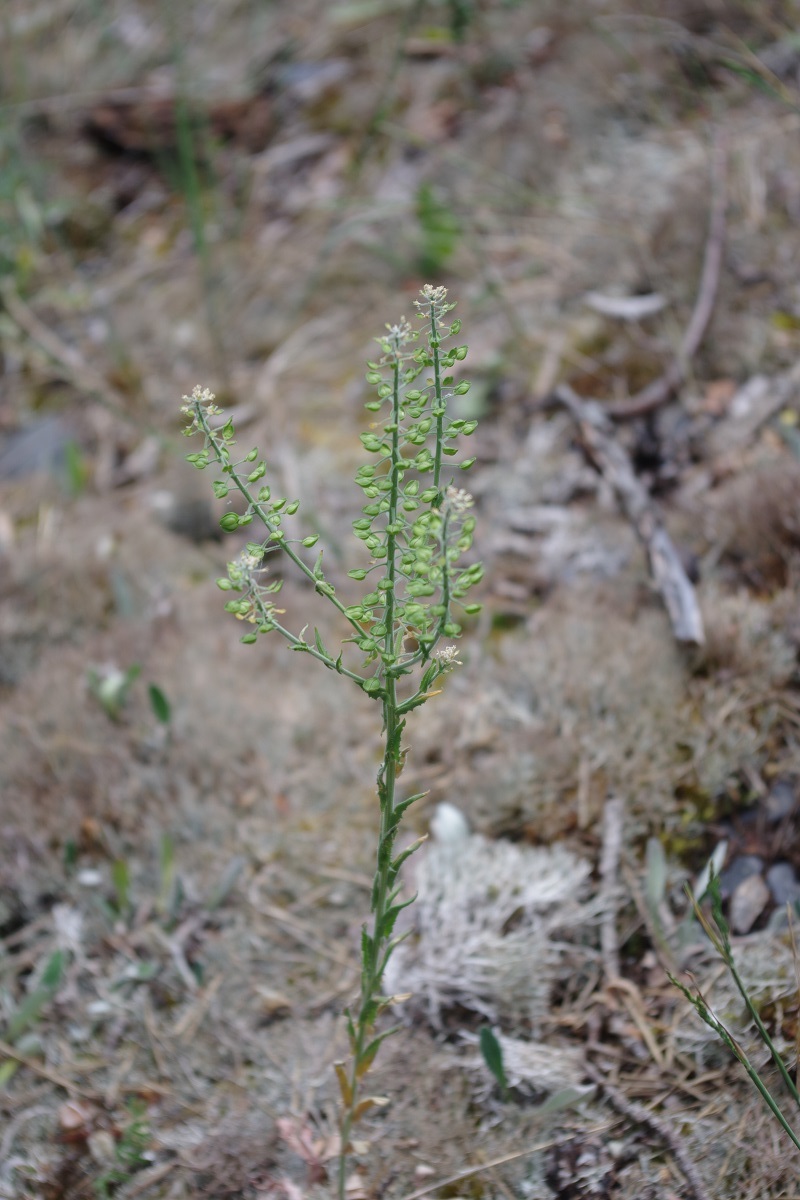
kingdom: Plantae
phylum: Tracheophyta
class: Magnoliopsida
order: Brassicales
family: Brassicaceae
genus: Lepidium
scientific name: Lepidium campestre
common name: Field pepperwort
